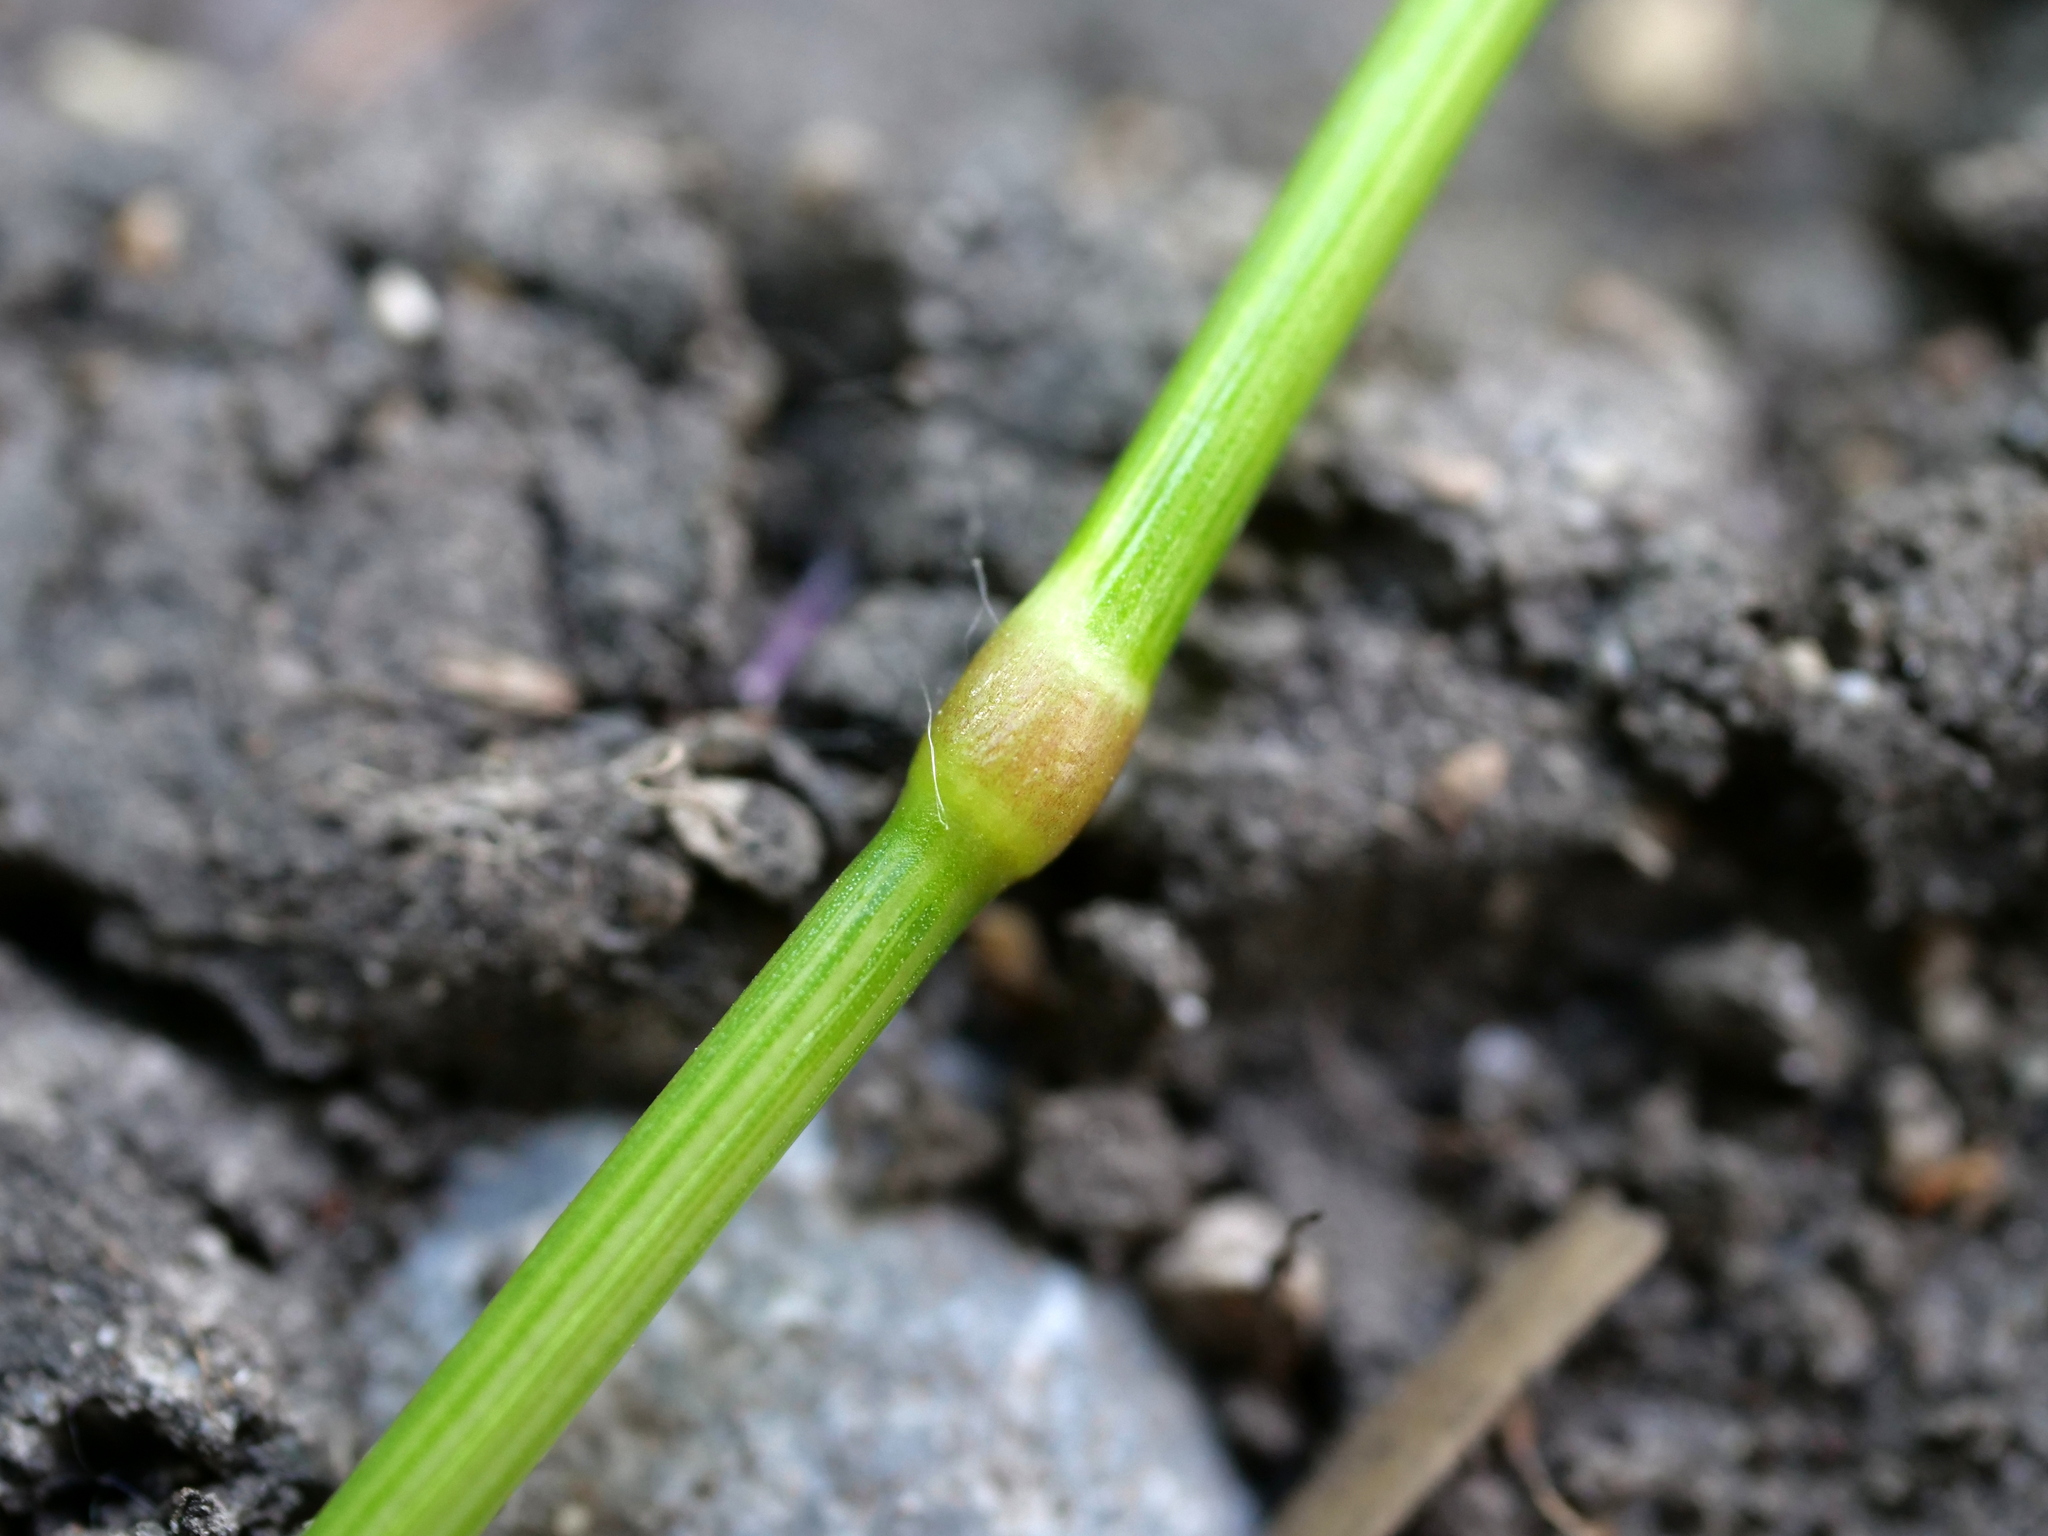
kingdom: Plantae
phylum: Tracheophyta
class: Liliopsida
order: Poales
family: Poaceae
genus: Lolium
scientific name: Lolium pratense
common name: Dover grass
